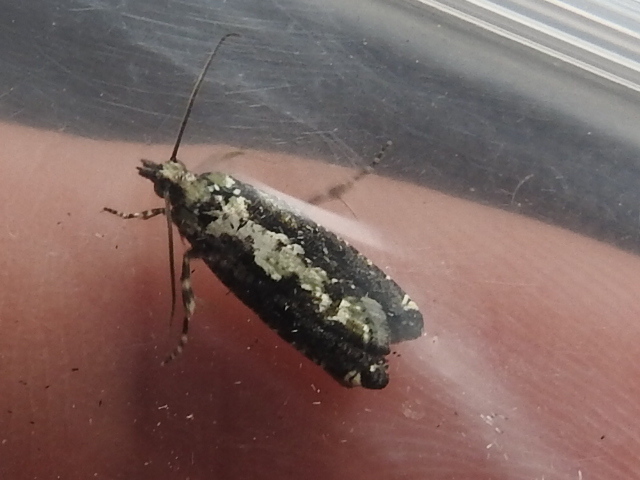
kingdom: Animalia
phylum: Arthropoda
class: Insecta
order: Lepidoptera
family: Tortricidae
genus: Chimoptesis
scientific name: Chimoptesis pennsylvaniana
